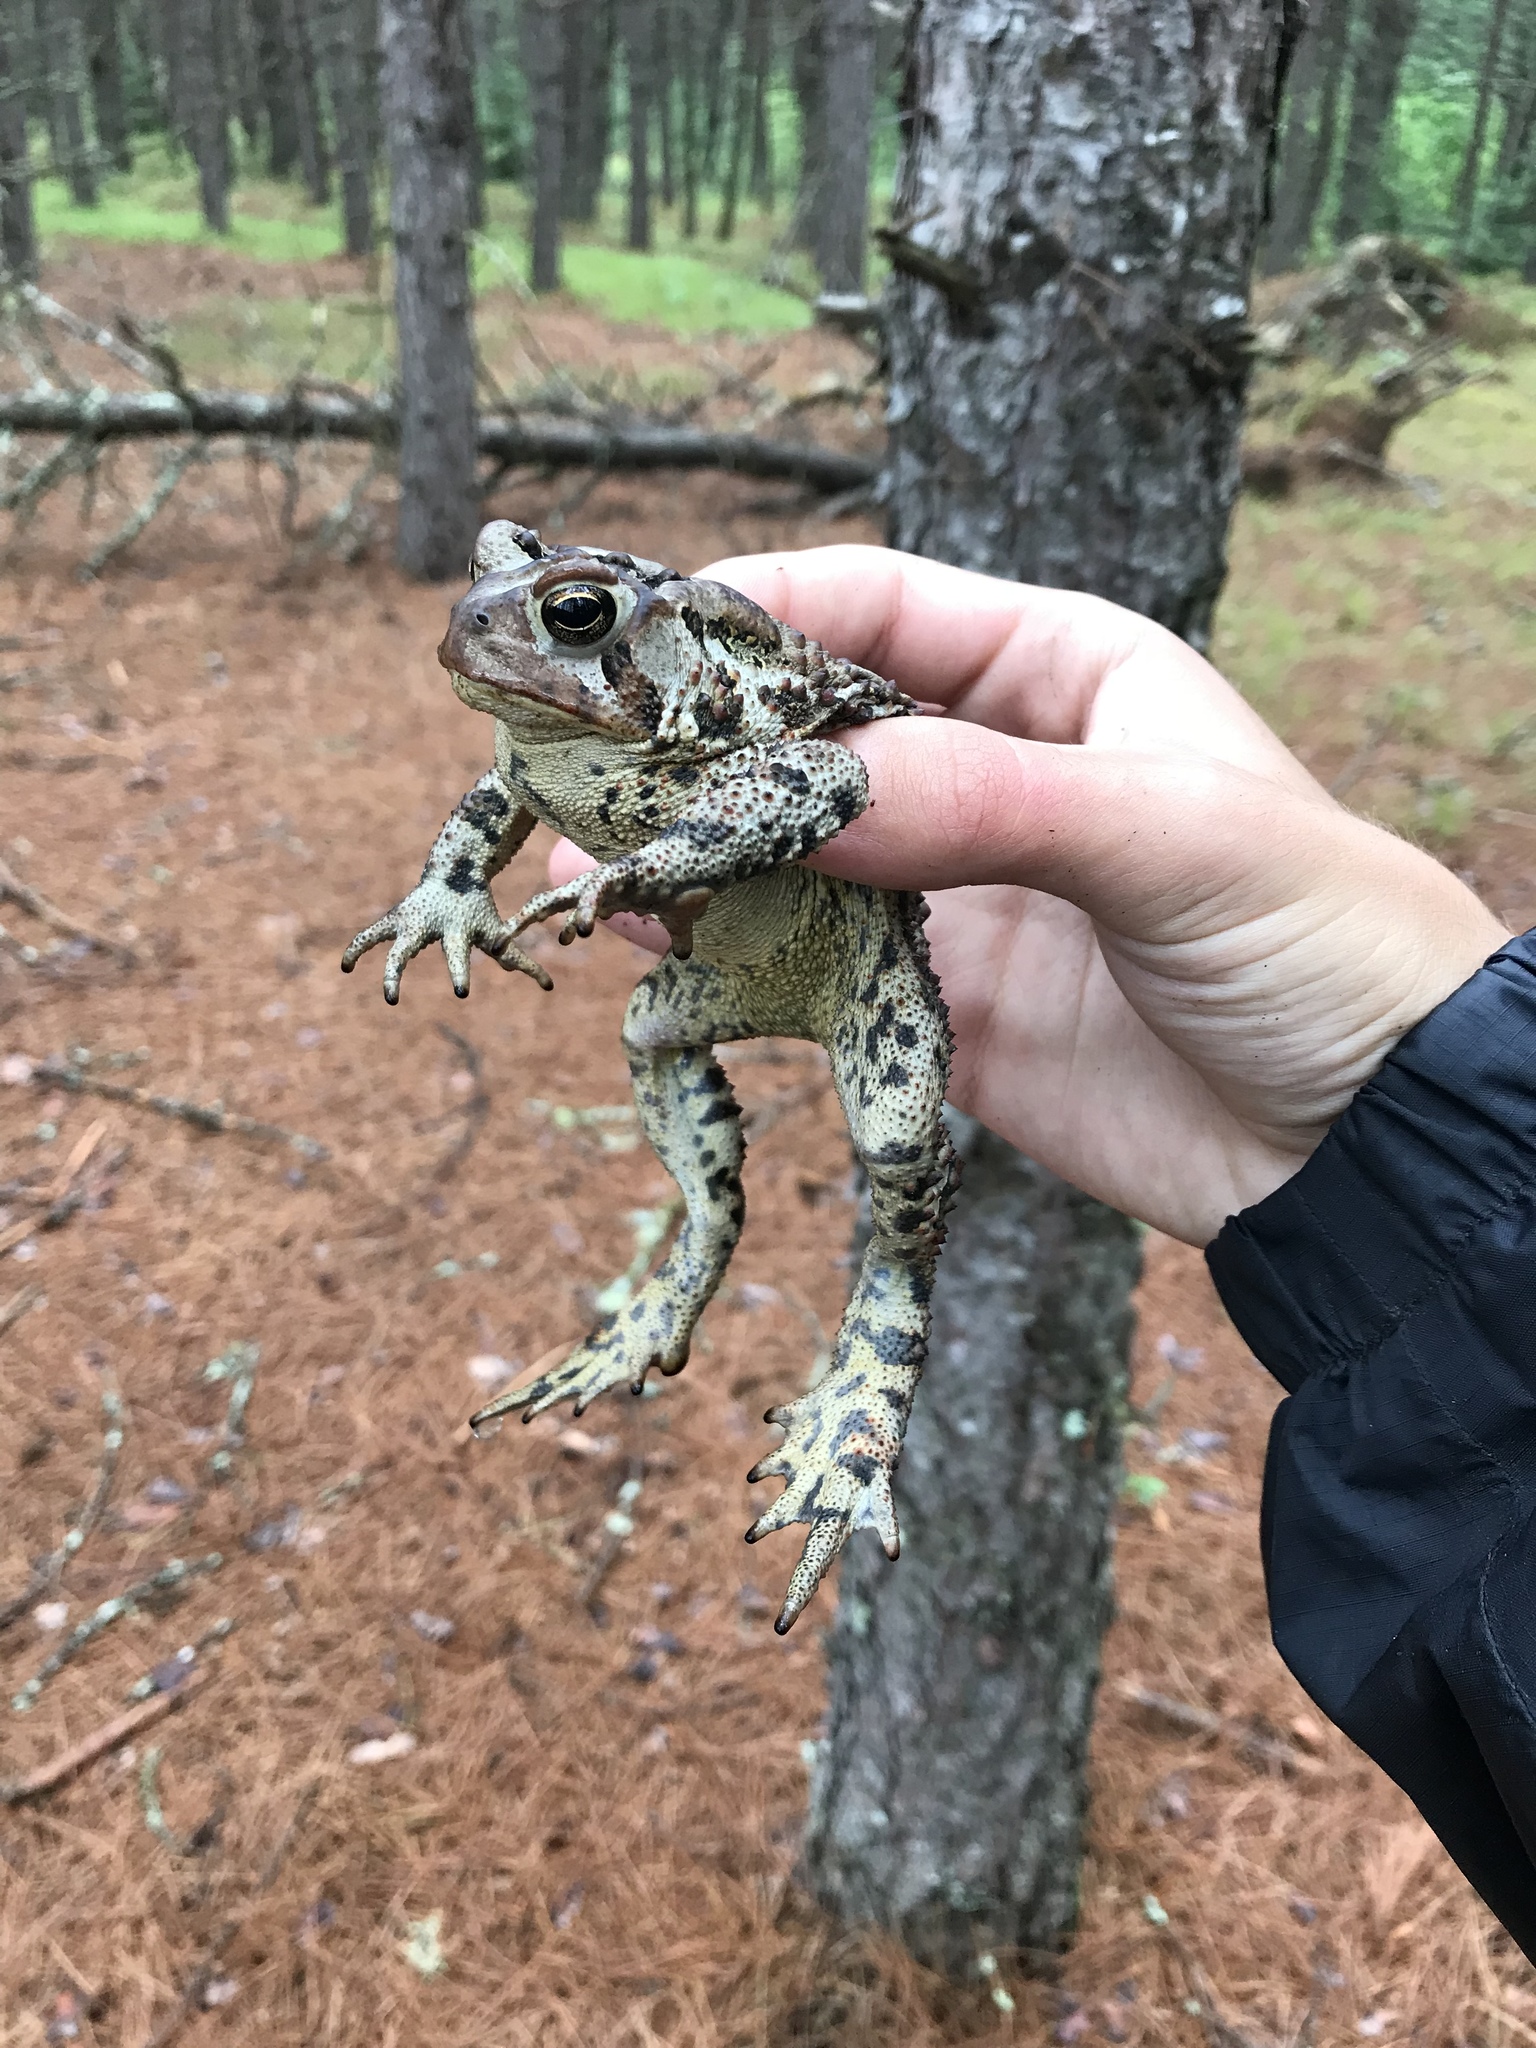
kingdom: Animalia
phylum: Chordata
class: Amphibia
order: Anura
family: Bufonidae
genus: Anaxyrus
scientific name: Anaxyrus americanus
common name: American toad
